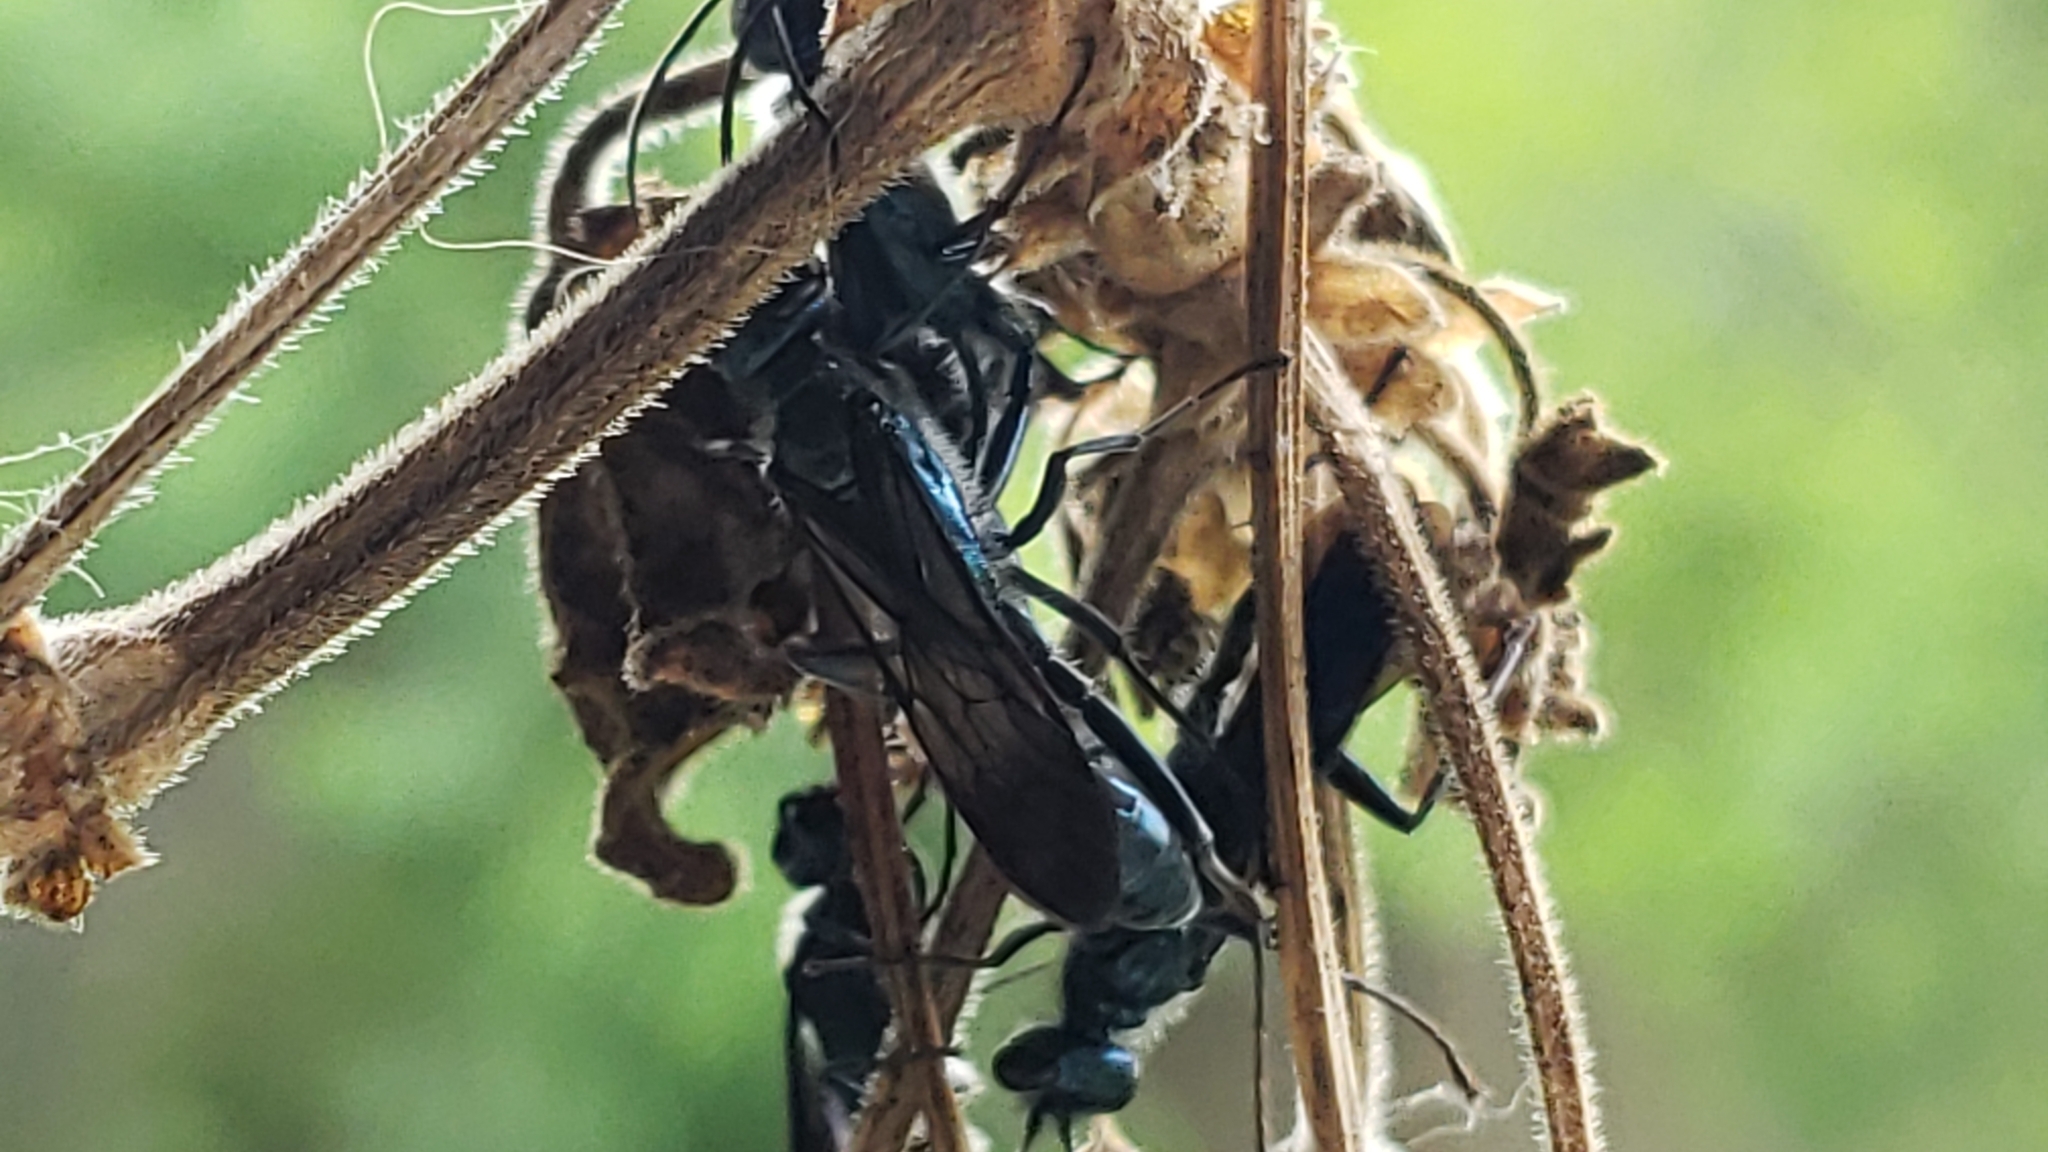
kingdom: Animalia
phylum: Arthropoda
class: Insecta
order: Hymenoptera
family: Sphecidae
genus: Chalybion
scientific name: Chalybion zimmermanni
